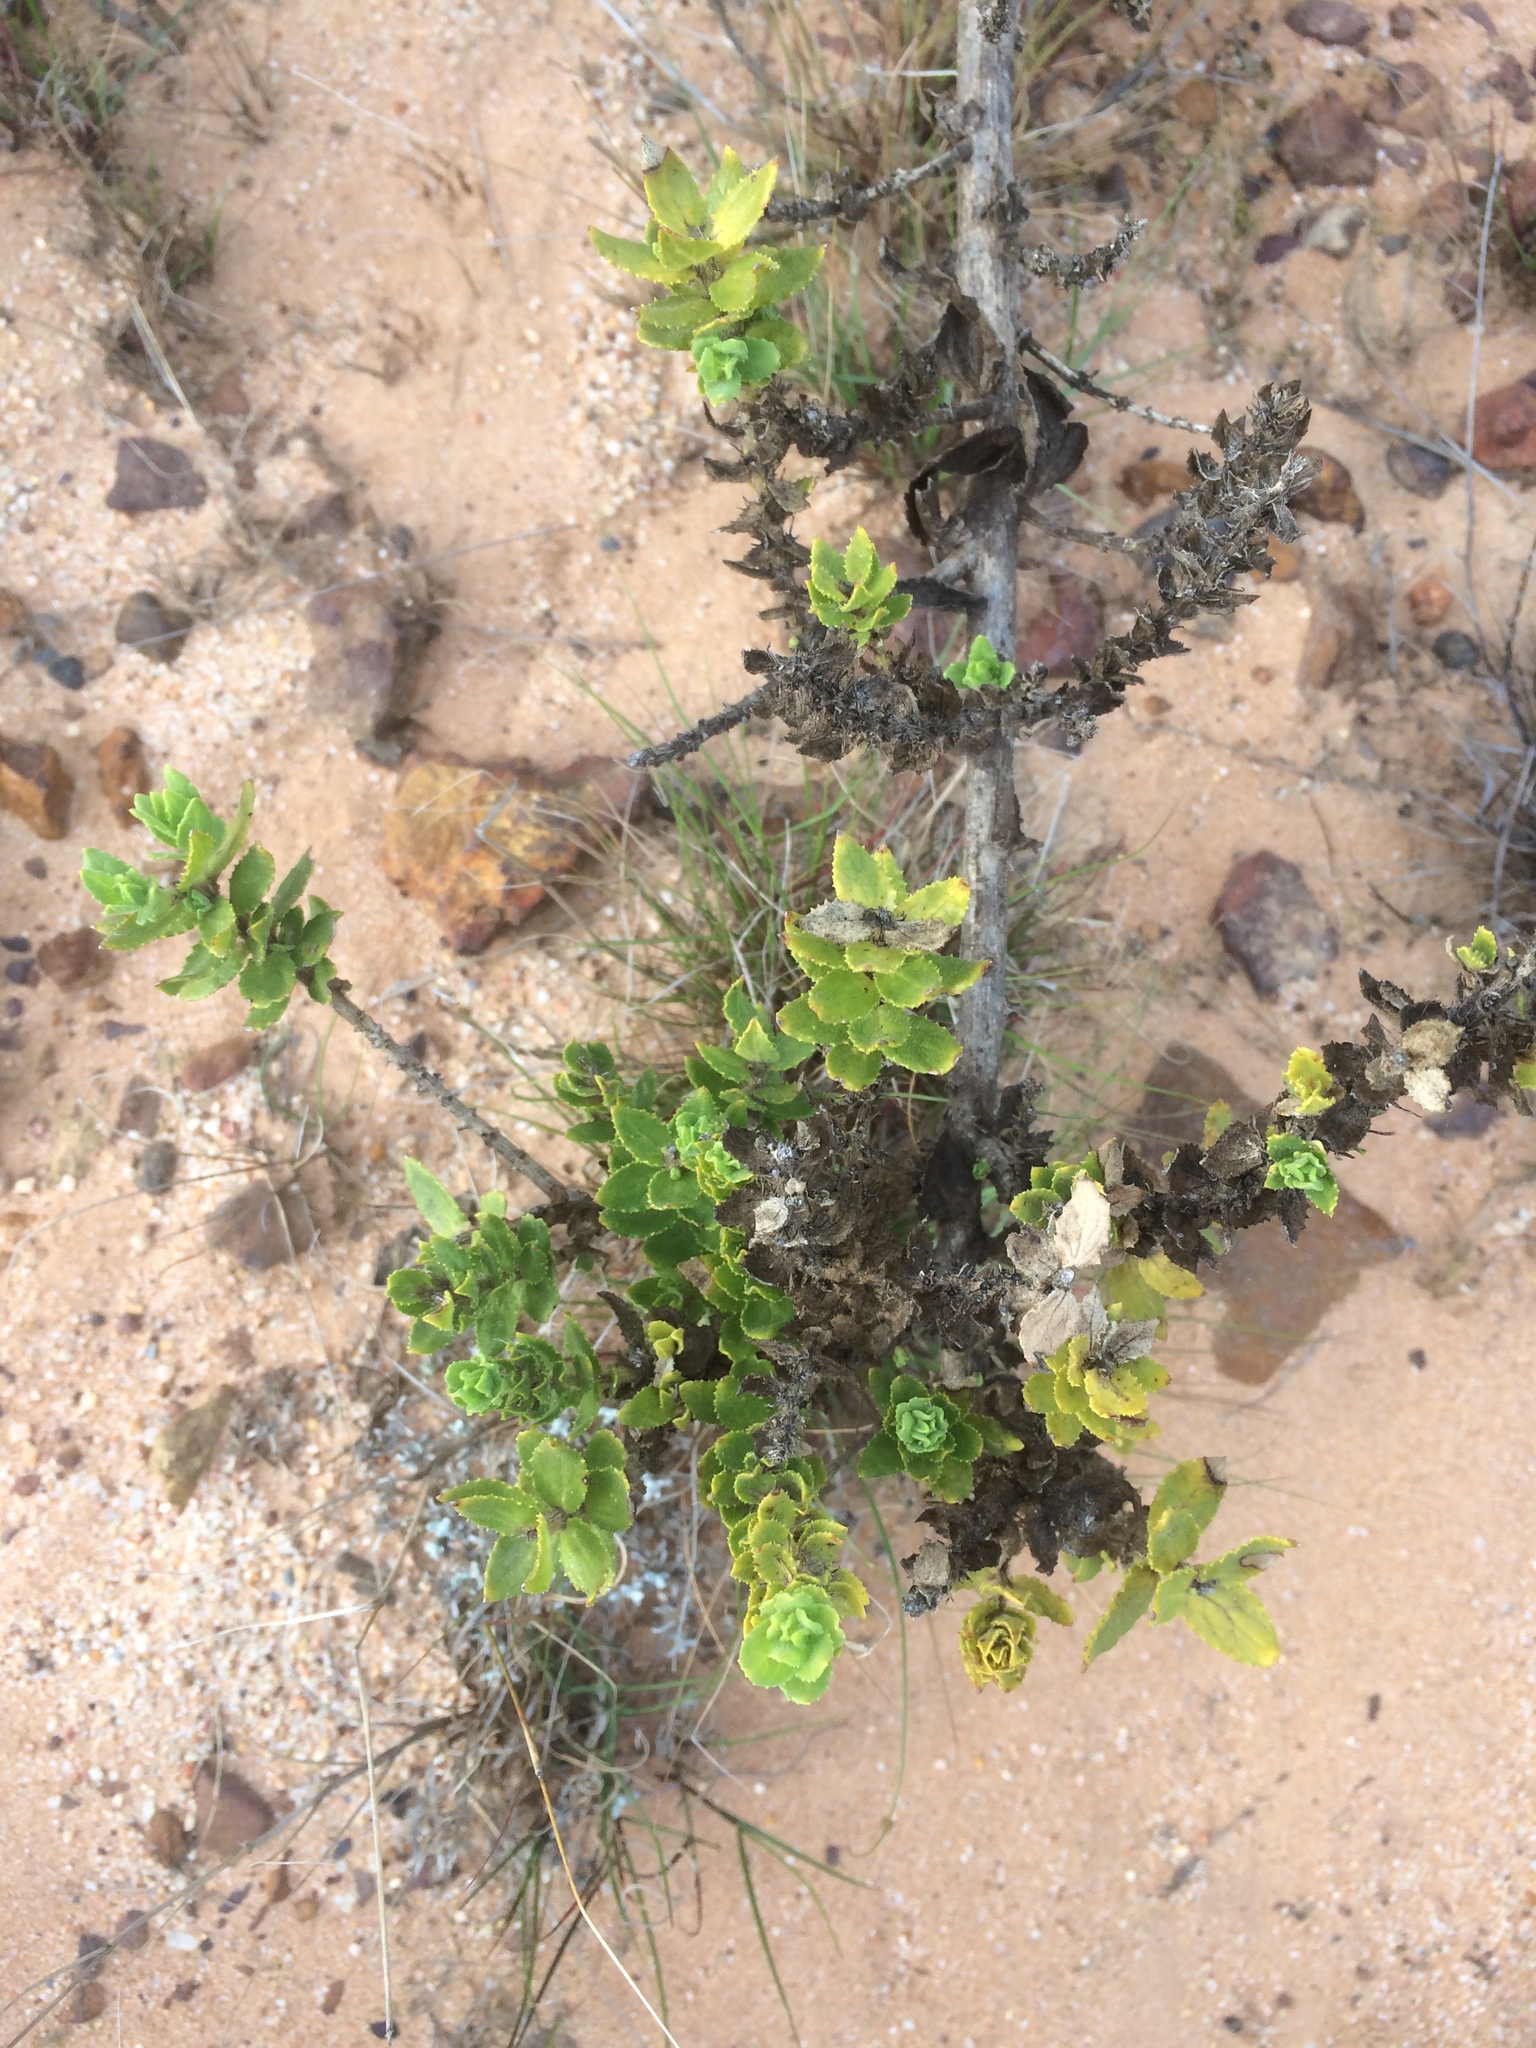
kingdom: Plantae
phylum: Tracheophyta
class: Magnoliopsida
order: Lamiales
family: Scrophulariaceae
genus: Oftia
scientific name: Oftia africana
